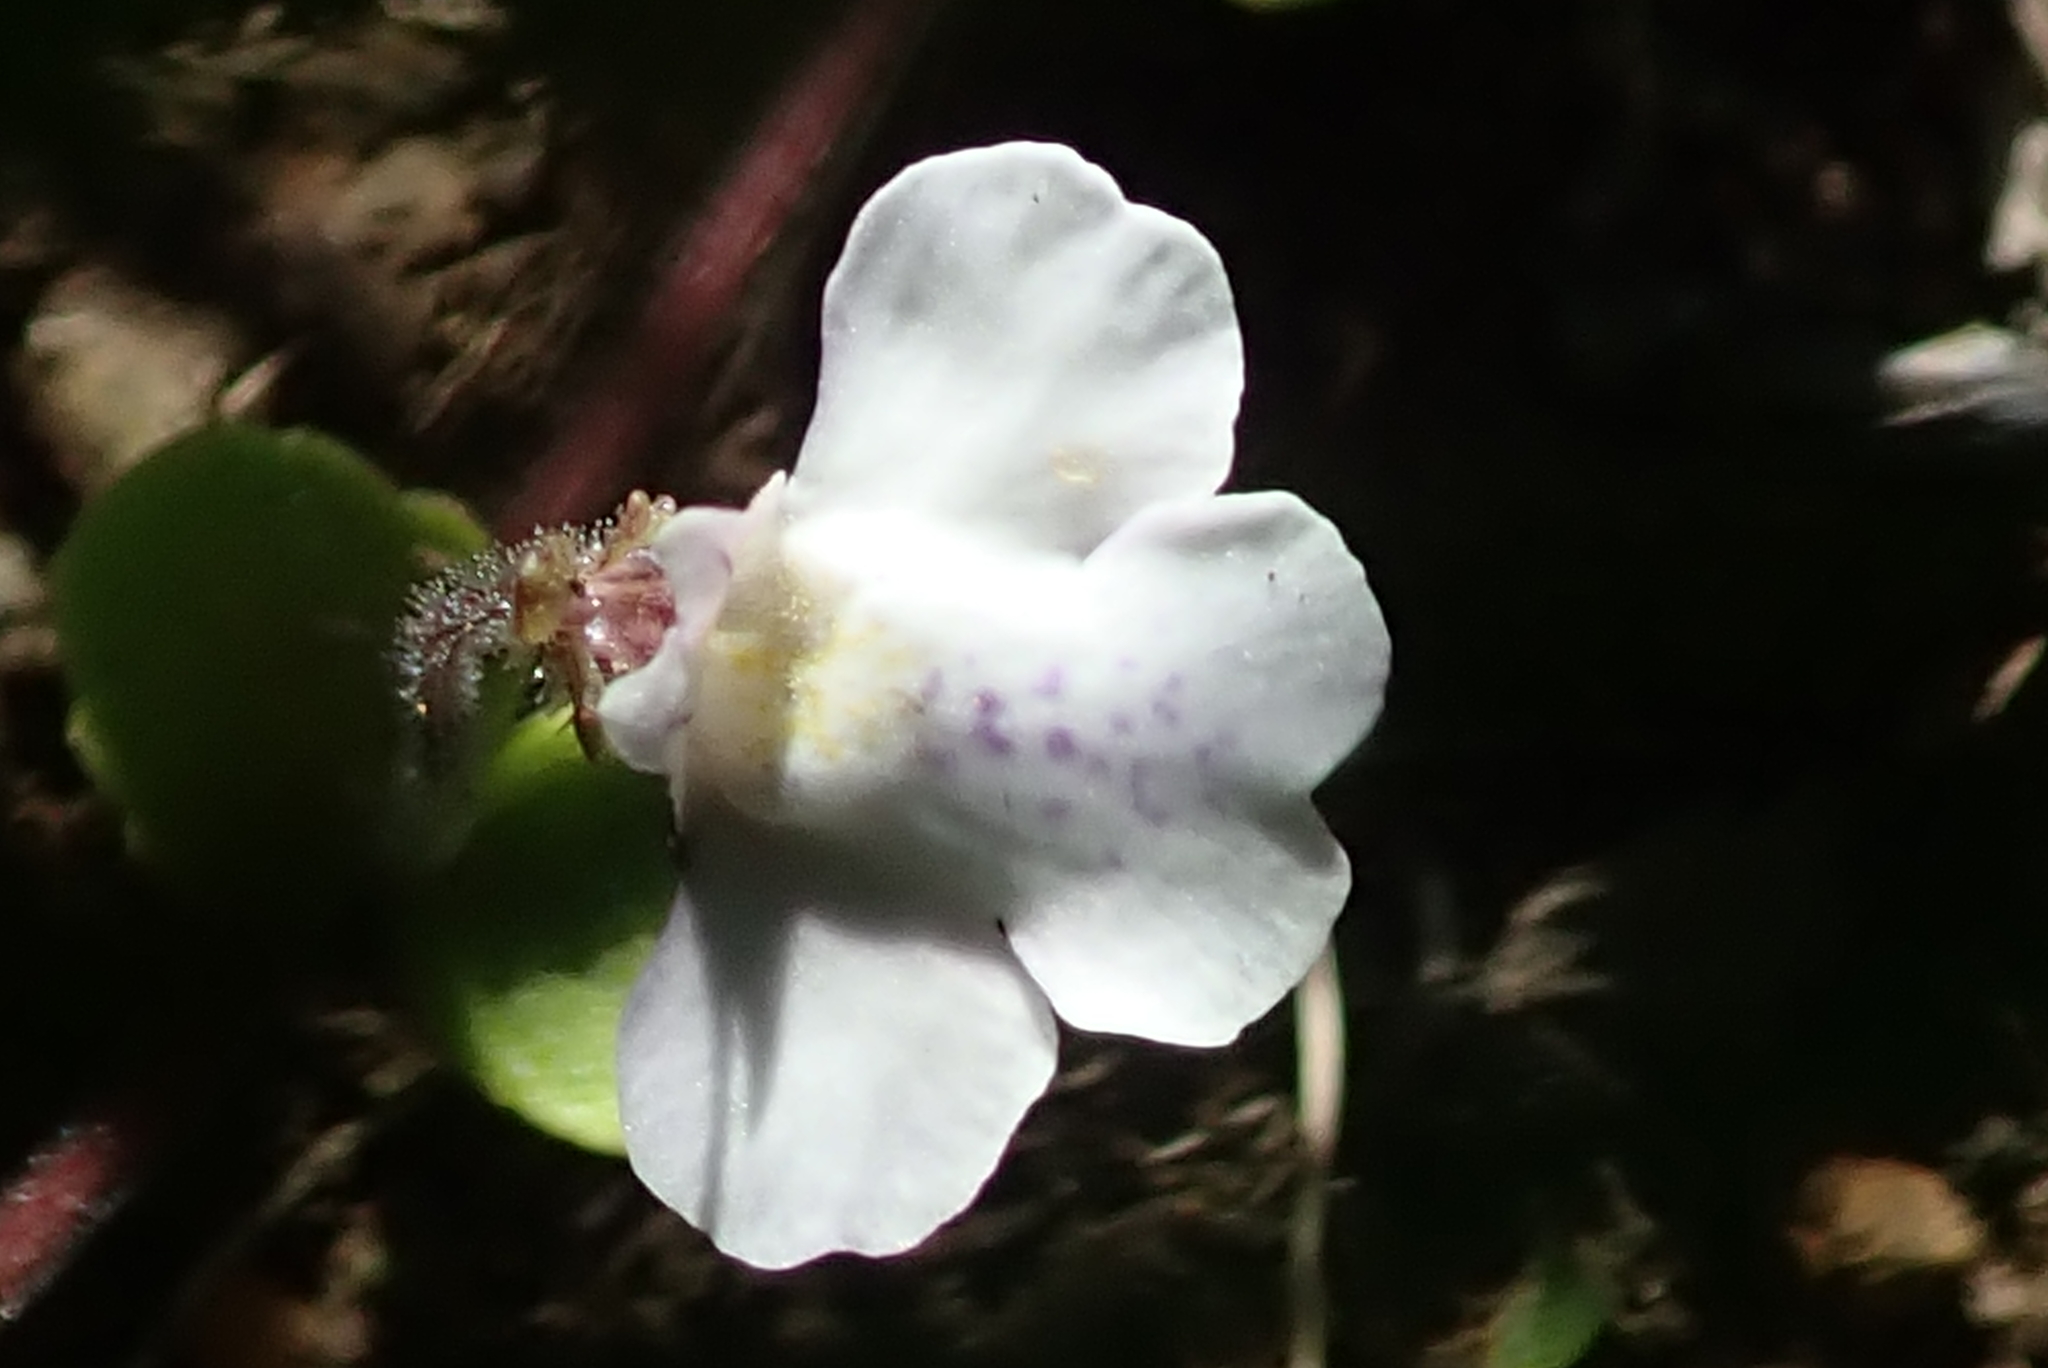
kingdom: Plantae
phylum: Tracheophyta
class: Magnoliopsida
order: Lamiales
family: Scrophulariaceae
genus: Diclis
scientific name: Diclis reptans
